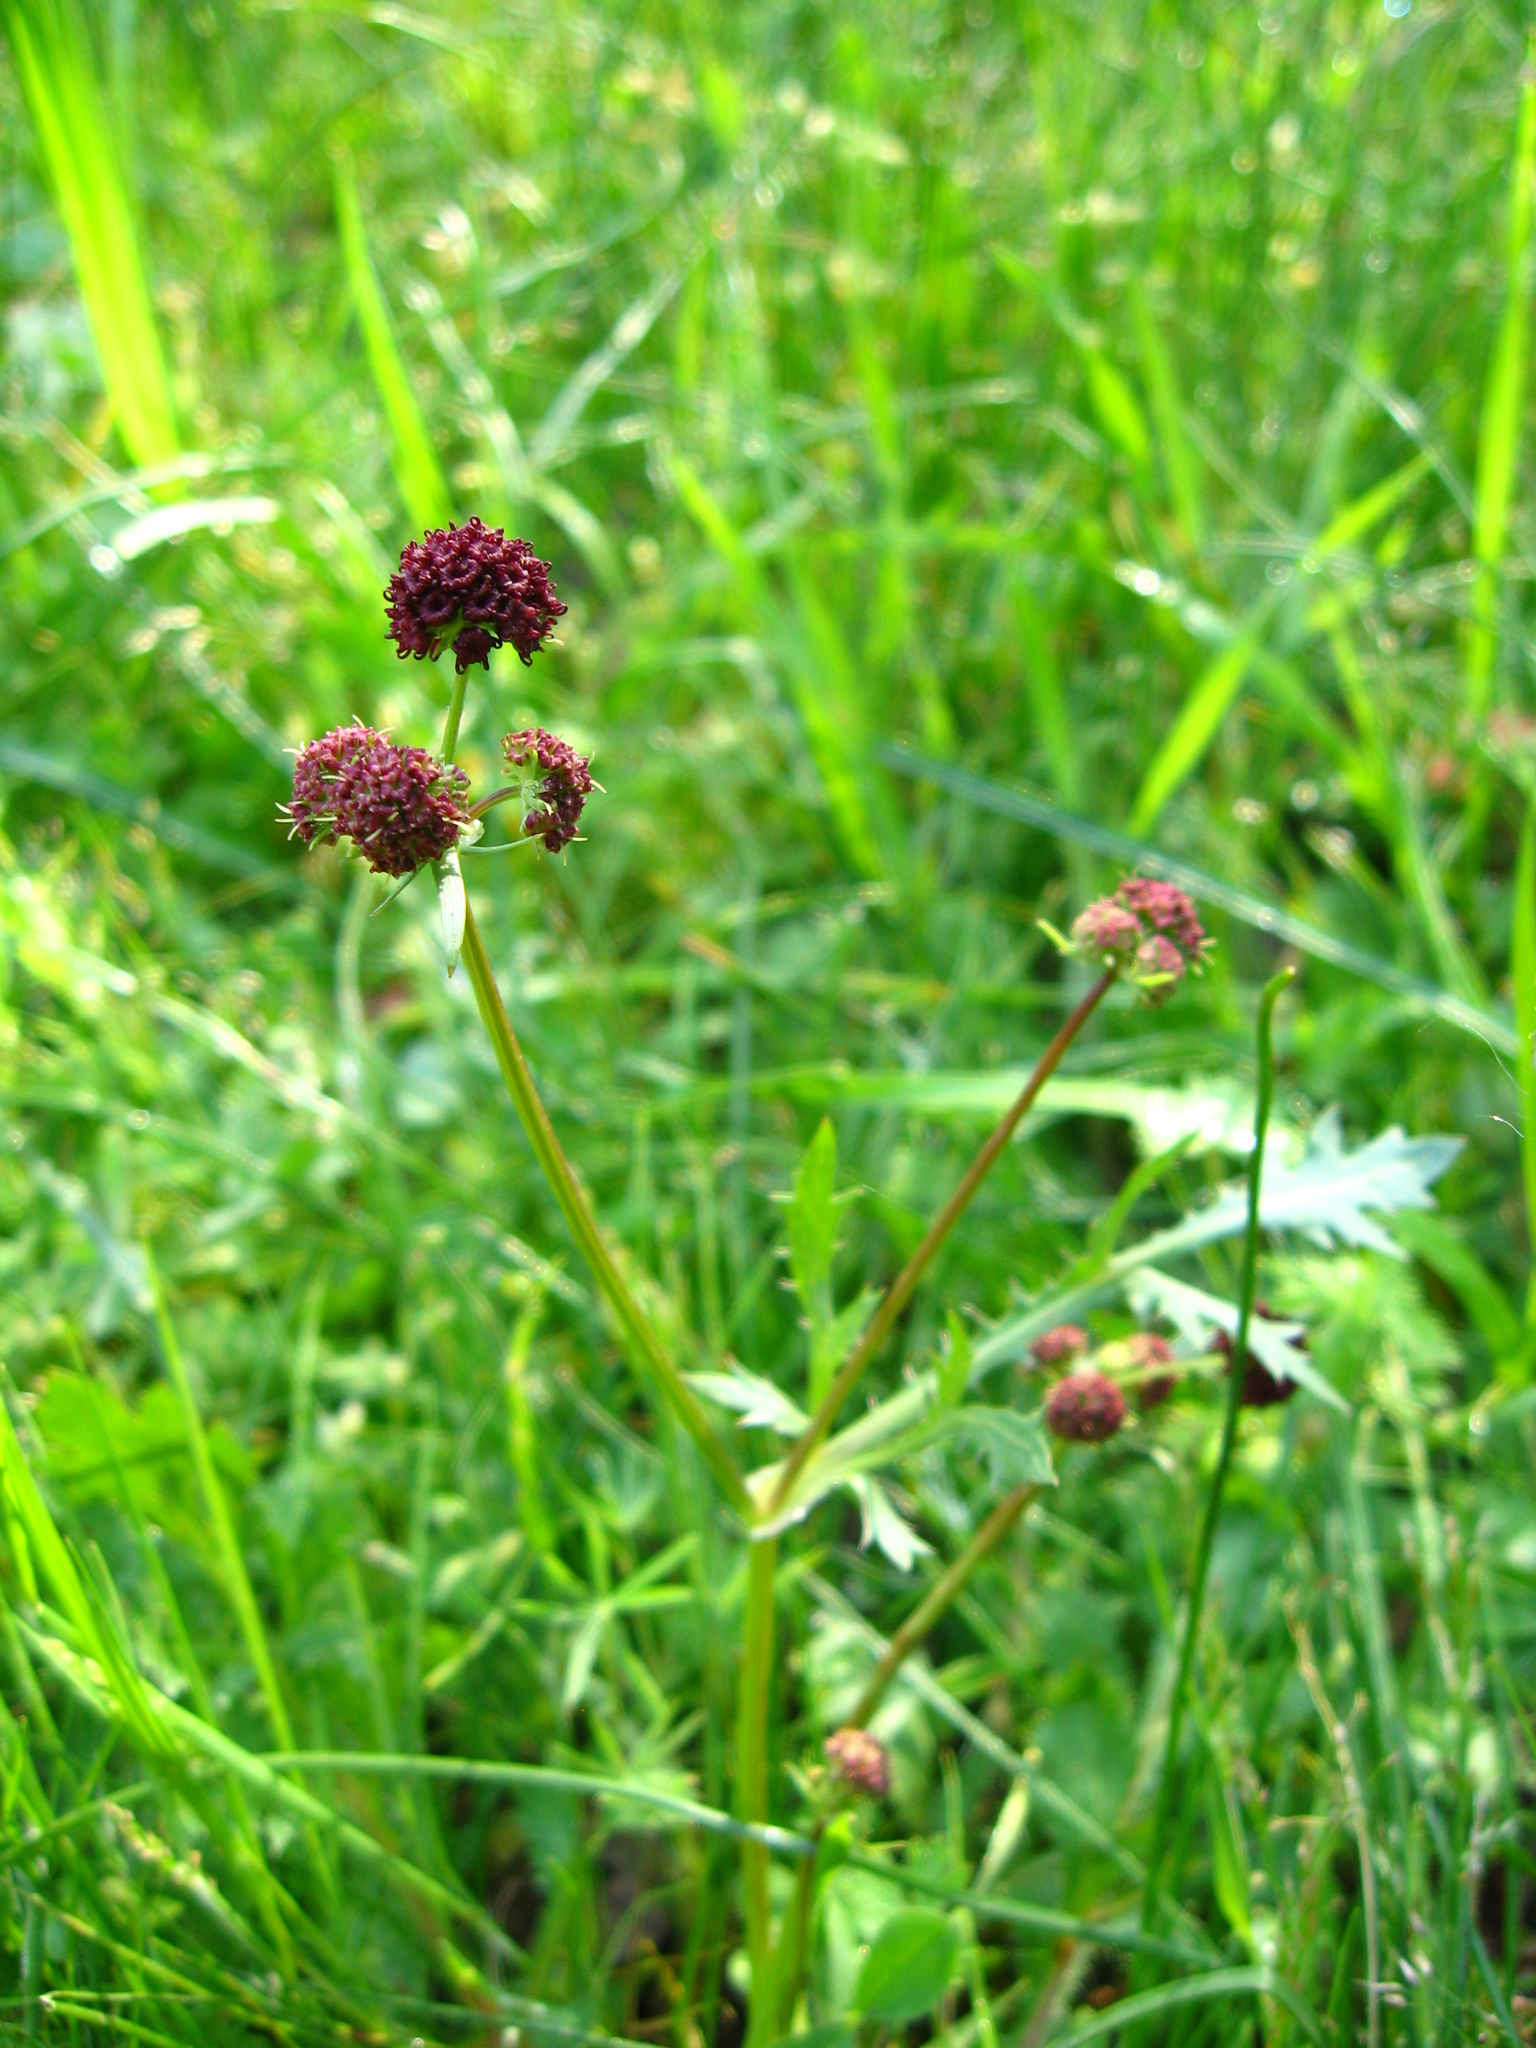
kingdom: Plantae
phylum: Tracheophyta
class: Magnoliopsida
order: Apiales
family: Apiaceae
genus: Sanicula
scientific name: Sanicula bipinnatifida
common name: Shoe-buttons
